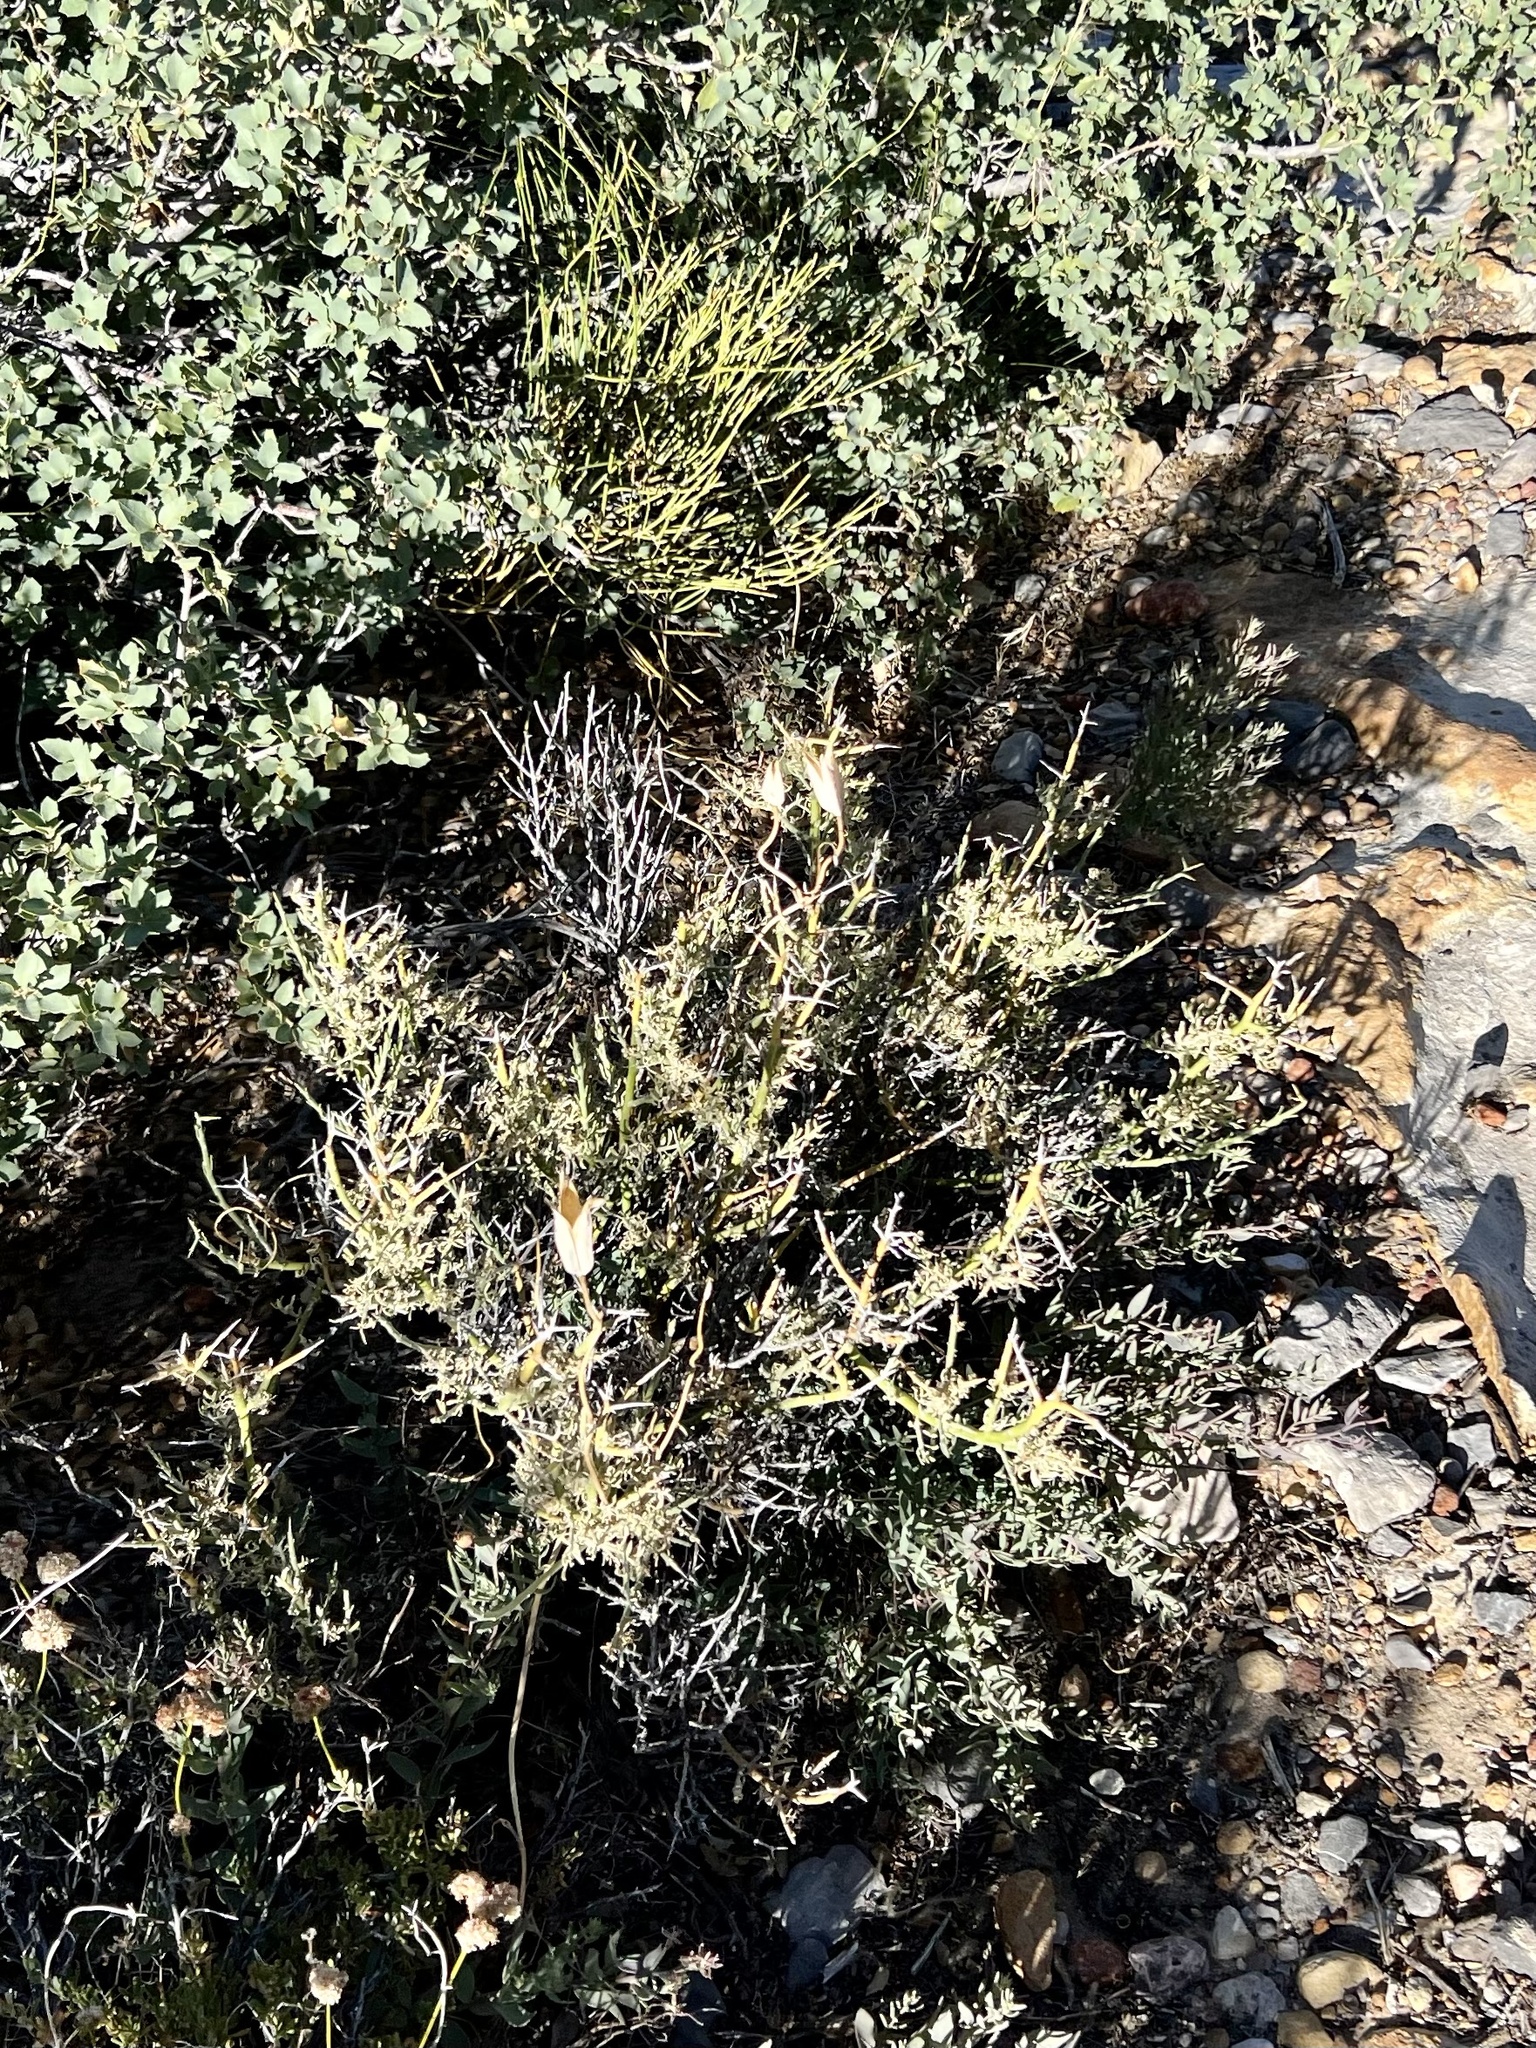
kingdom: Plantae
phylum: Tracheophyta
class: Liliopsida
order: Liliales
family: Liliaceae
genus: Calochortus
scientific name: Calochortus flexuosus
